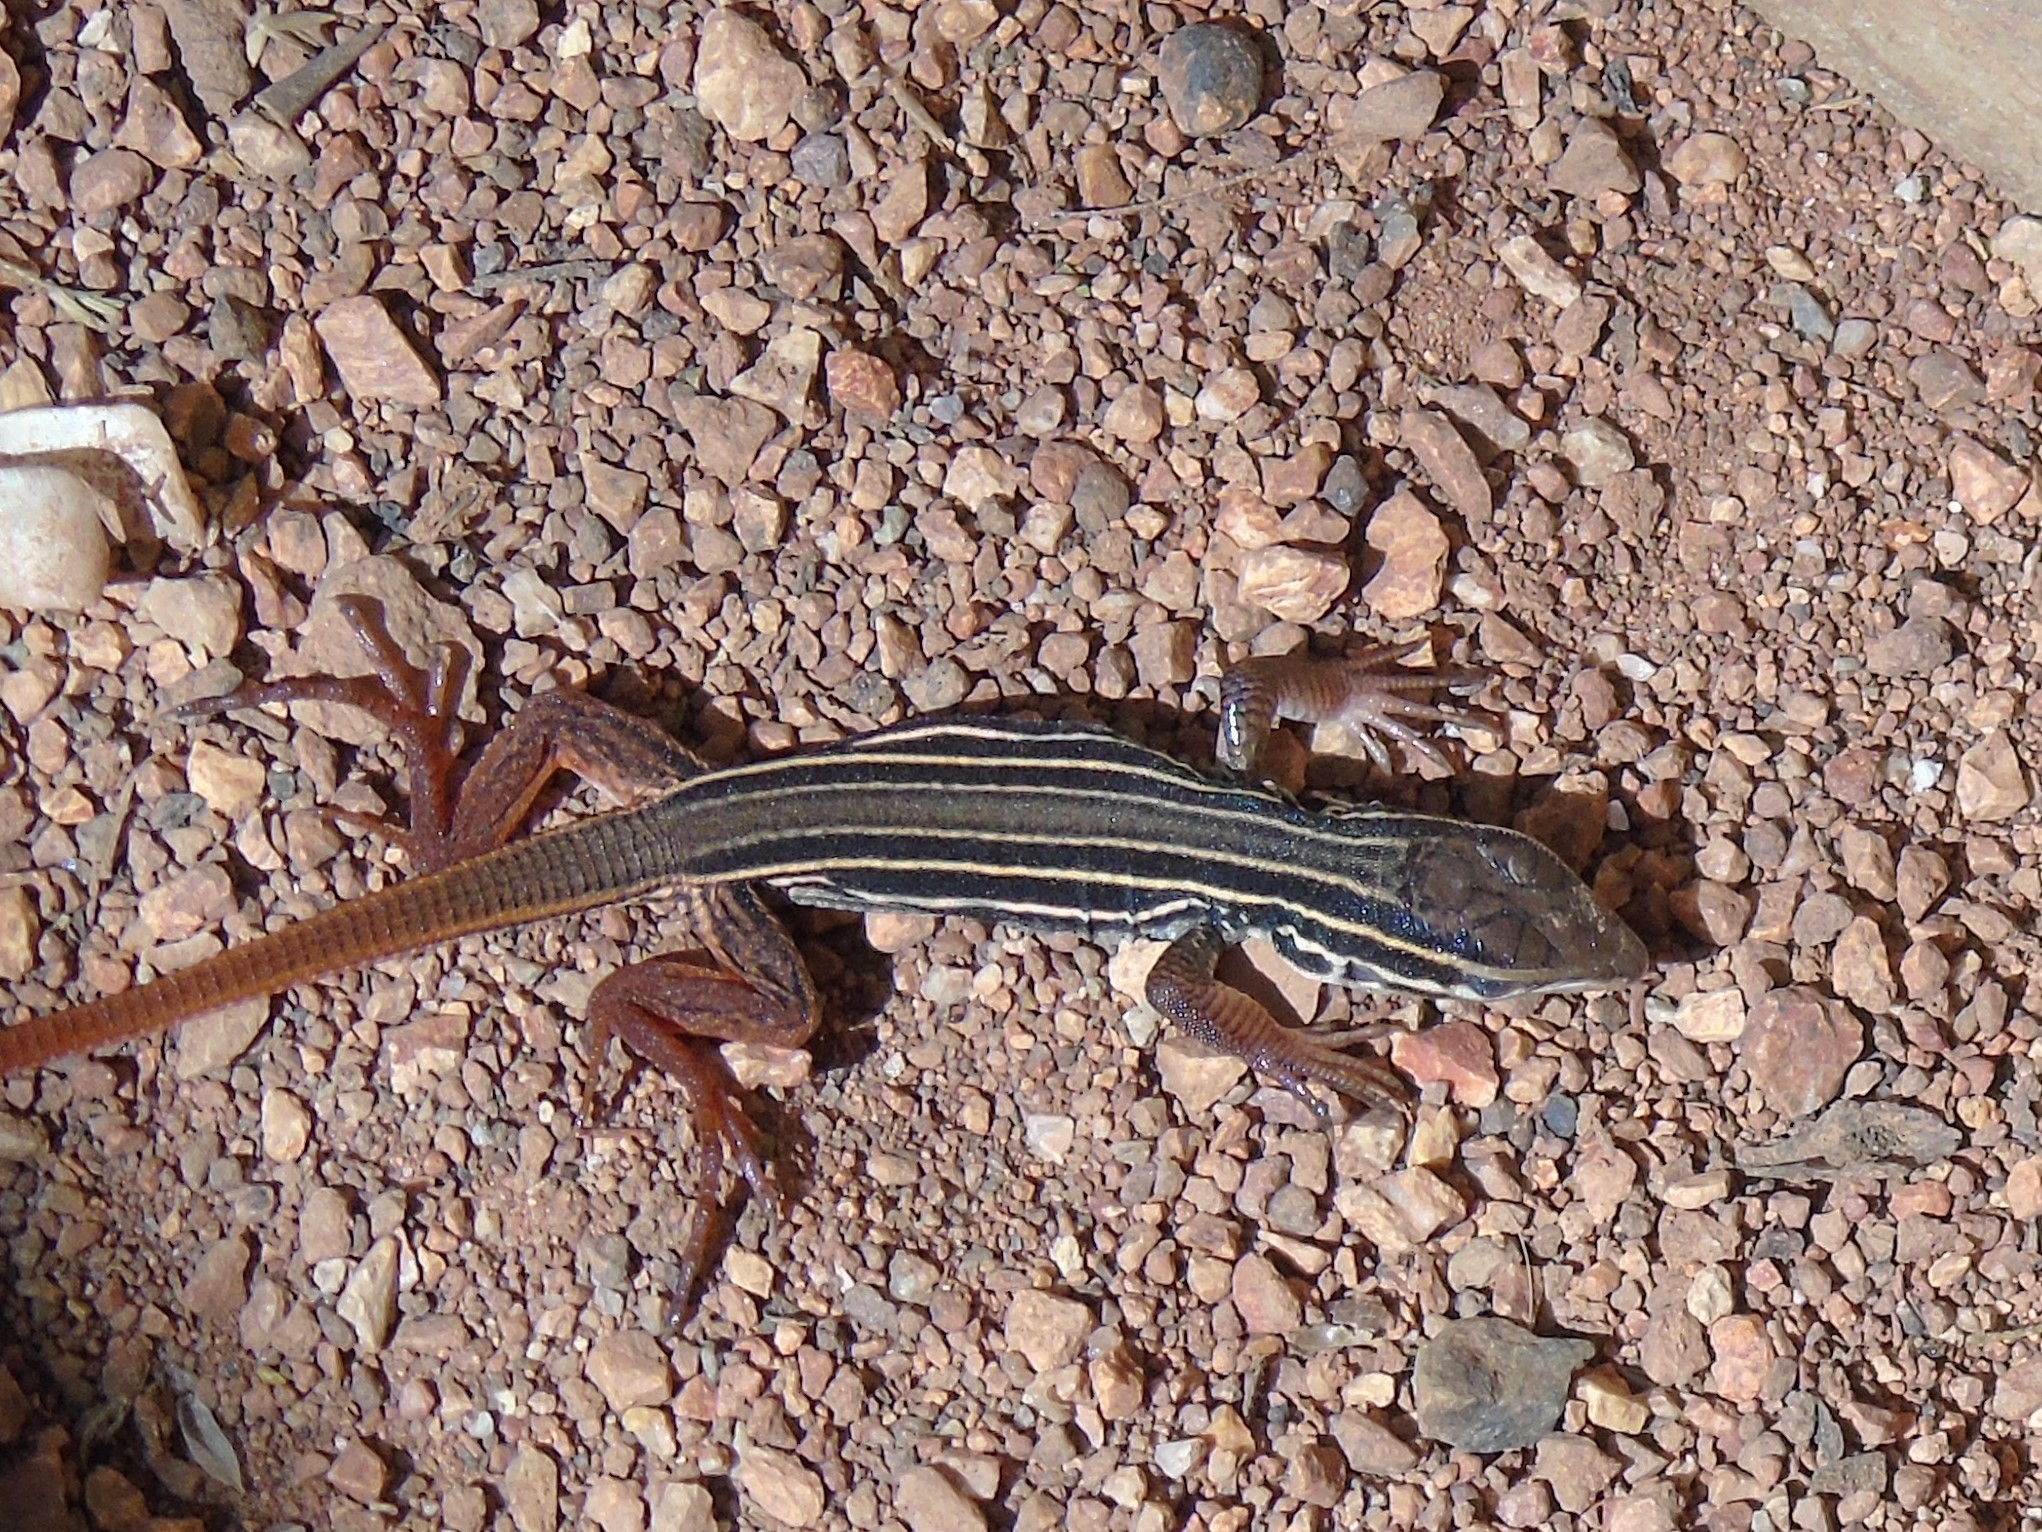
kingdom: Animalia
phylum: Chordata
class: Squamata
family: Teiidae
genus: Aspidoscelis
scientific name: Aspidoscelis costatus
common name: Western mexico whiptail
